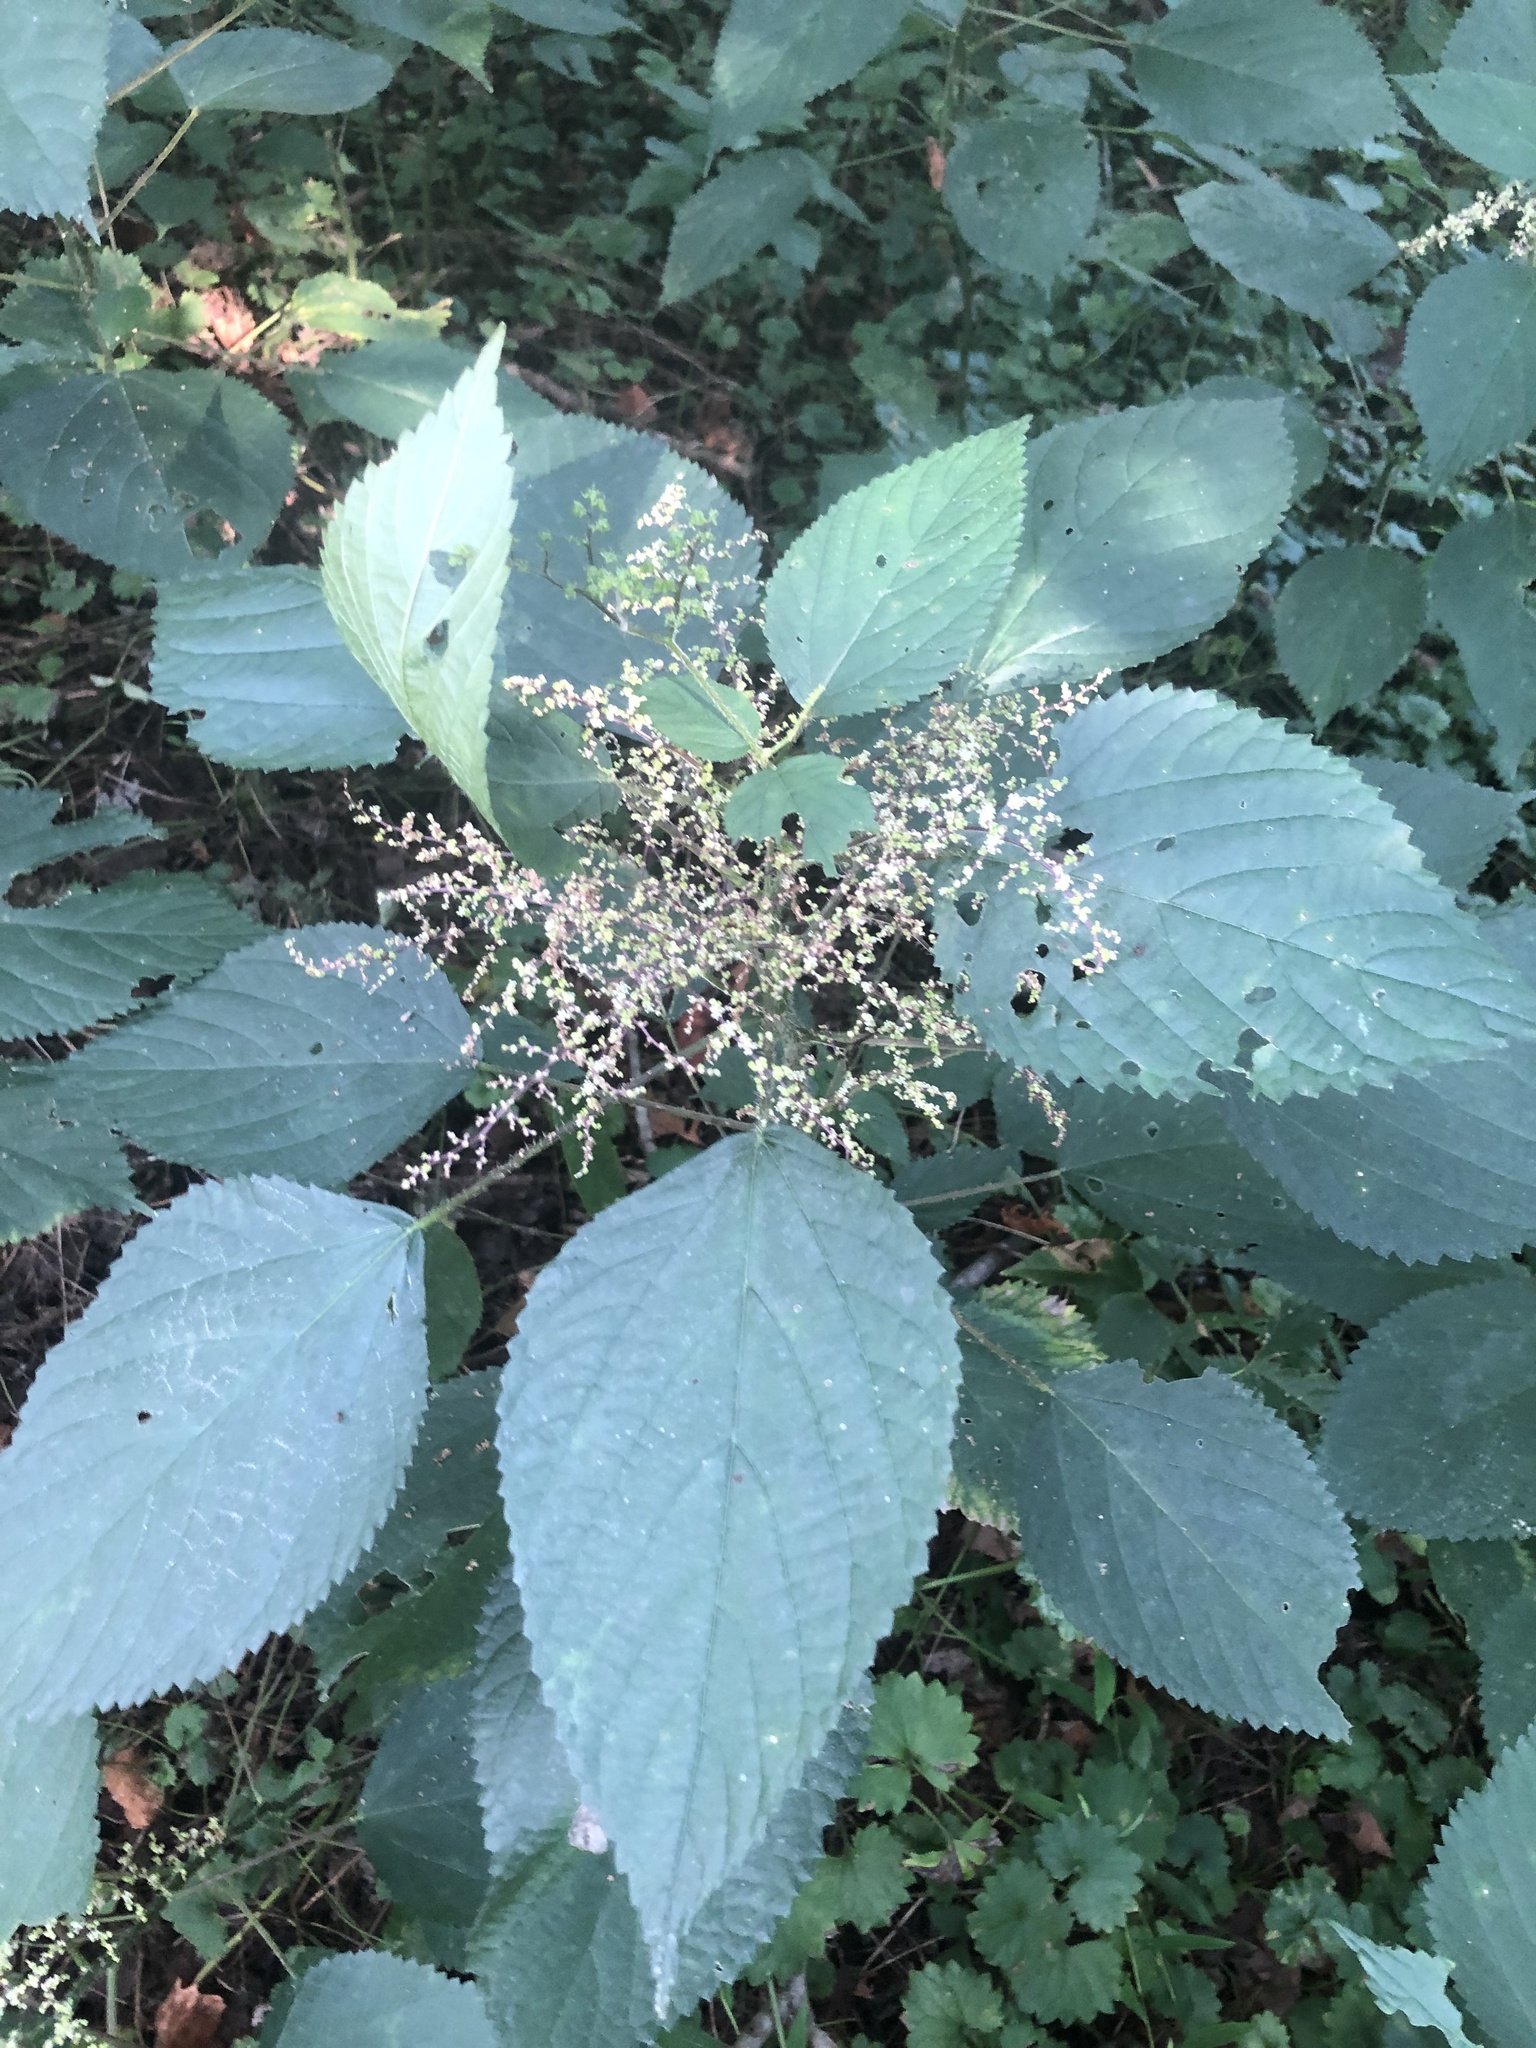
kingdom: Plantae
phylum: Tracheophyta
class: Magnoliopsida
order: Rosales
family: Urticaceae
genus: Laportea
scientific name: Laportea canadensis
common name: Canada nettle
